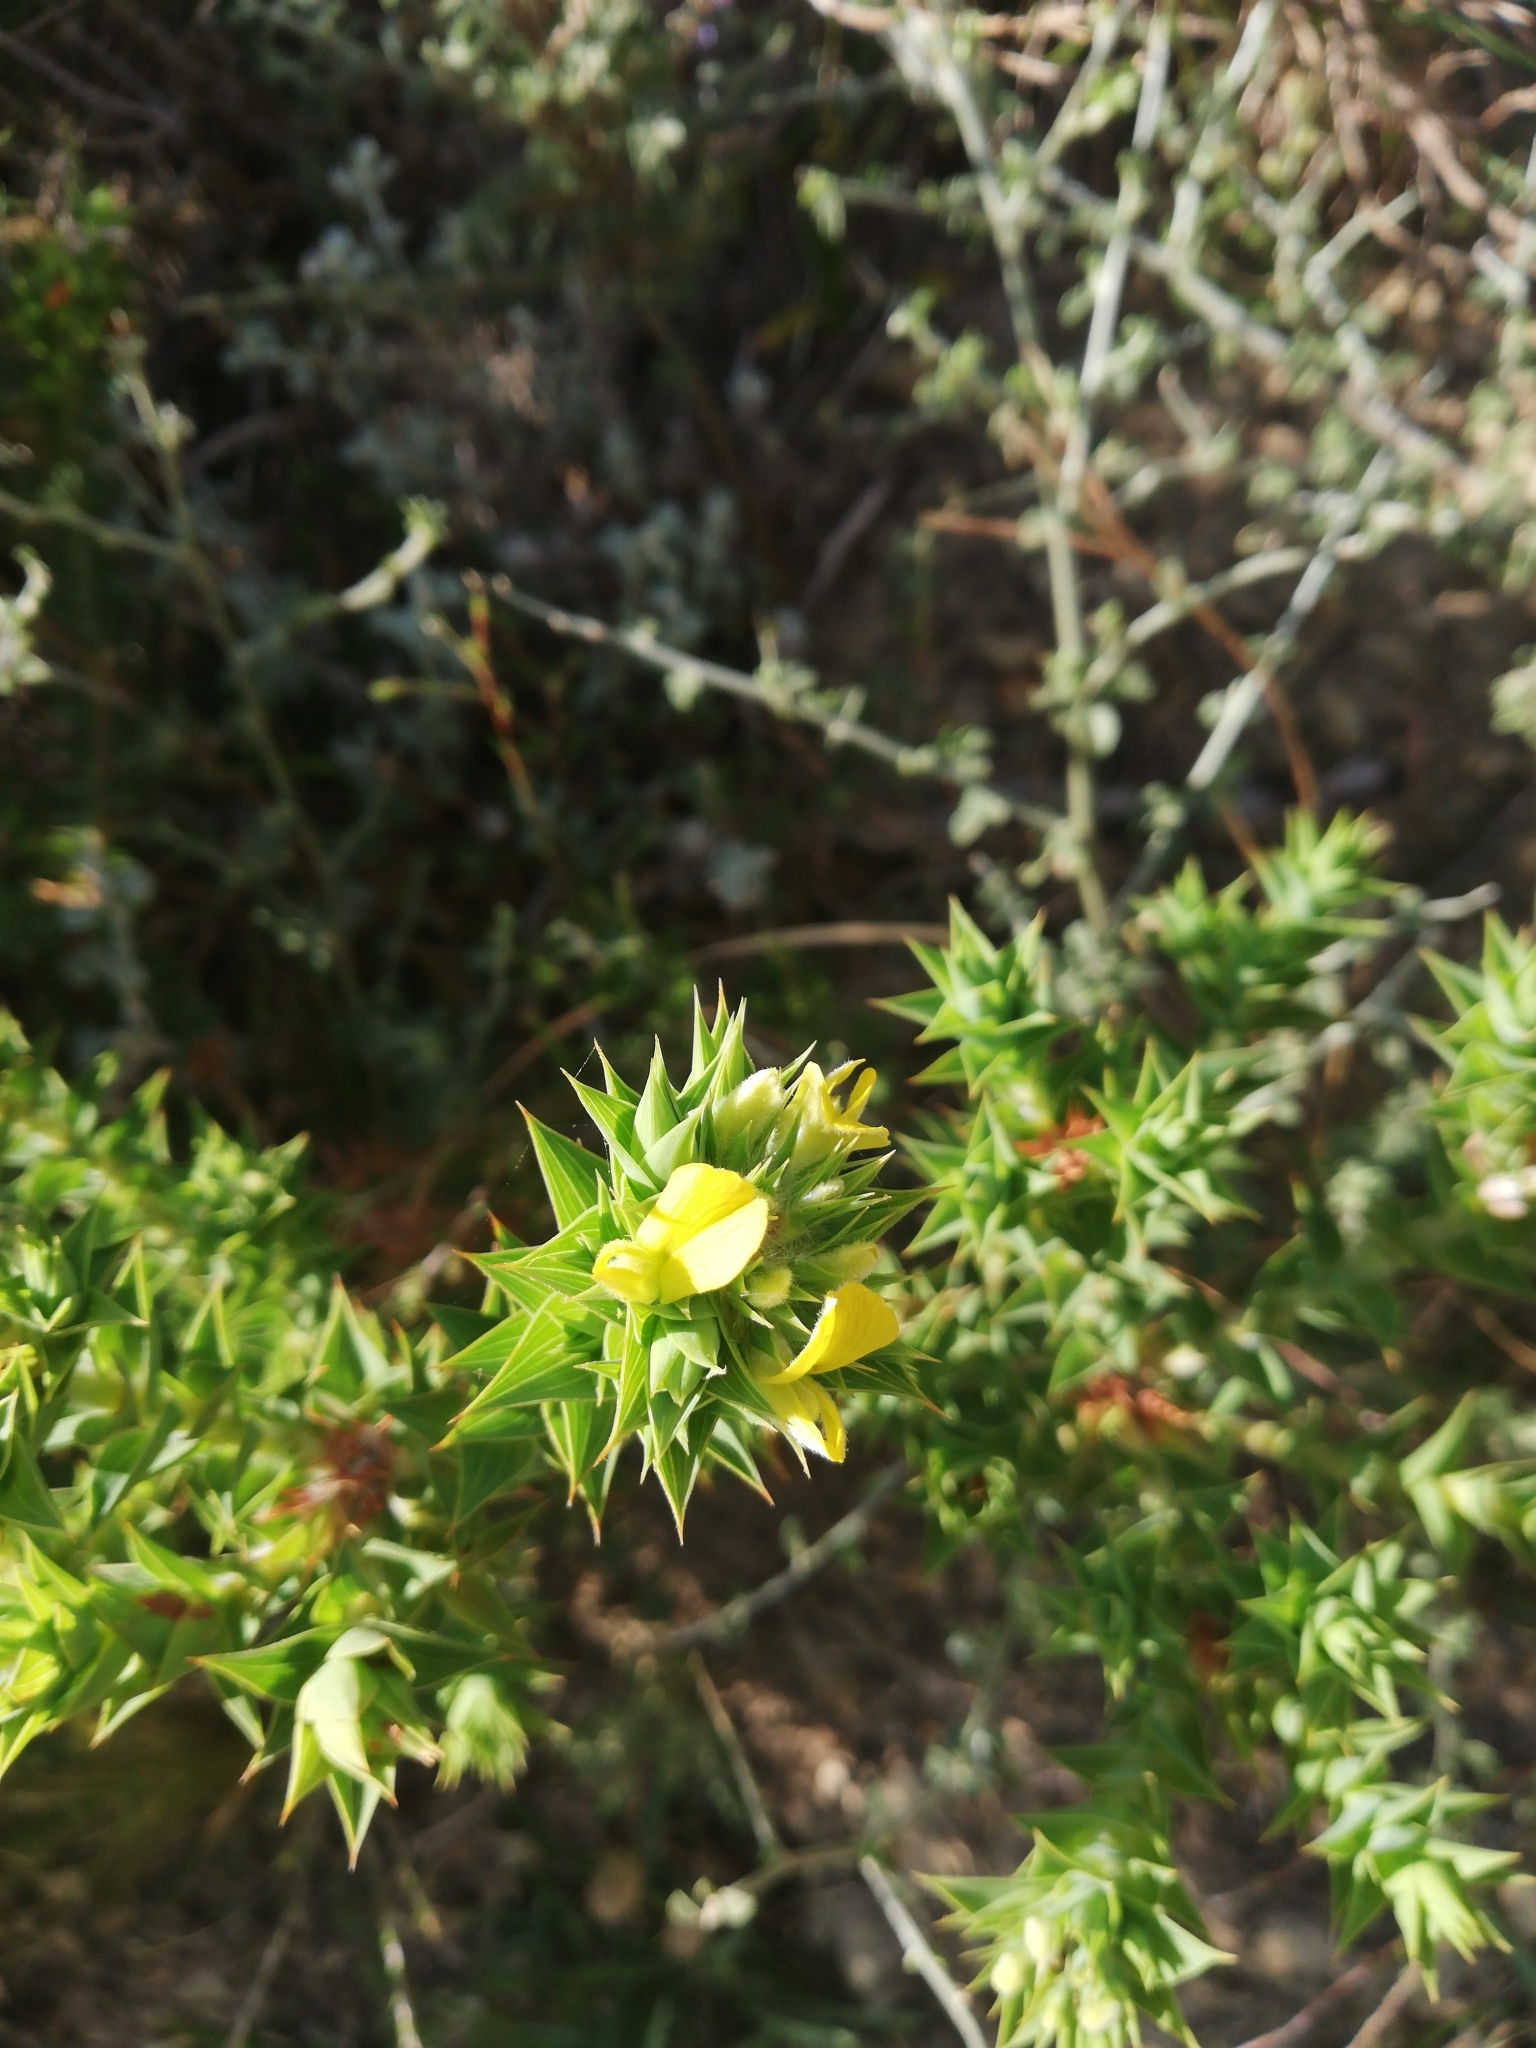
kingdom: Plantae
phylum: Tracheophyta
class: Magnoliopsida
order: Fabales
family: Fabaceae
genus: Aspalathus
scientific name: Aspalathus cordata
